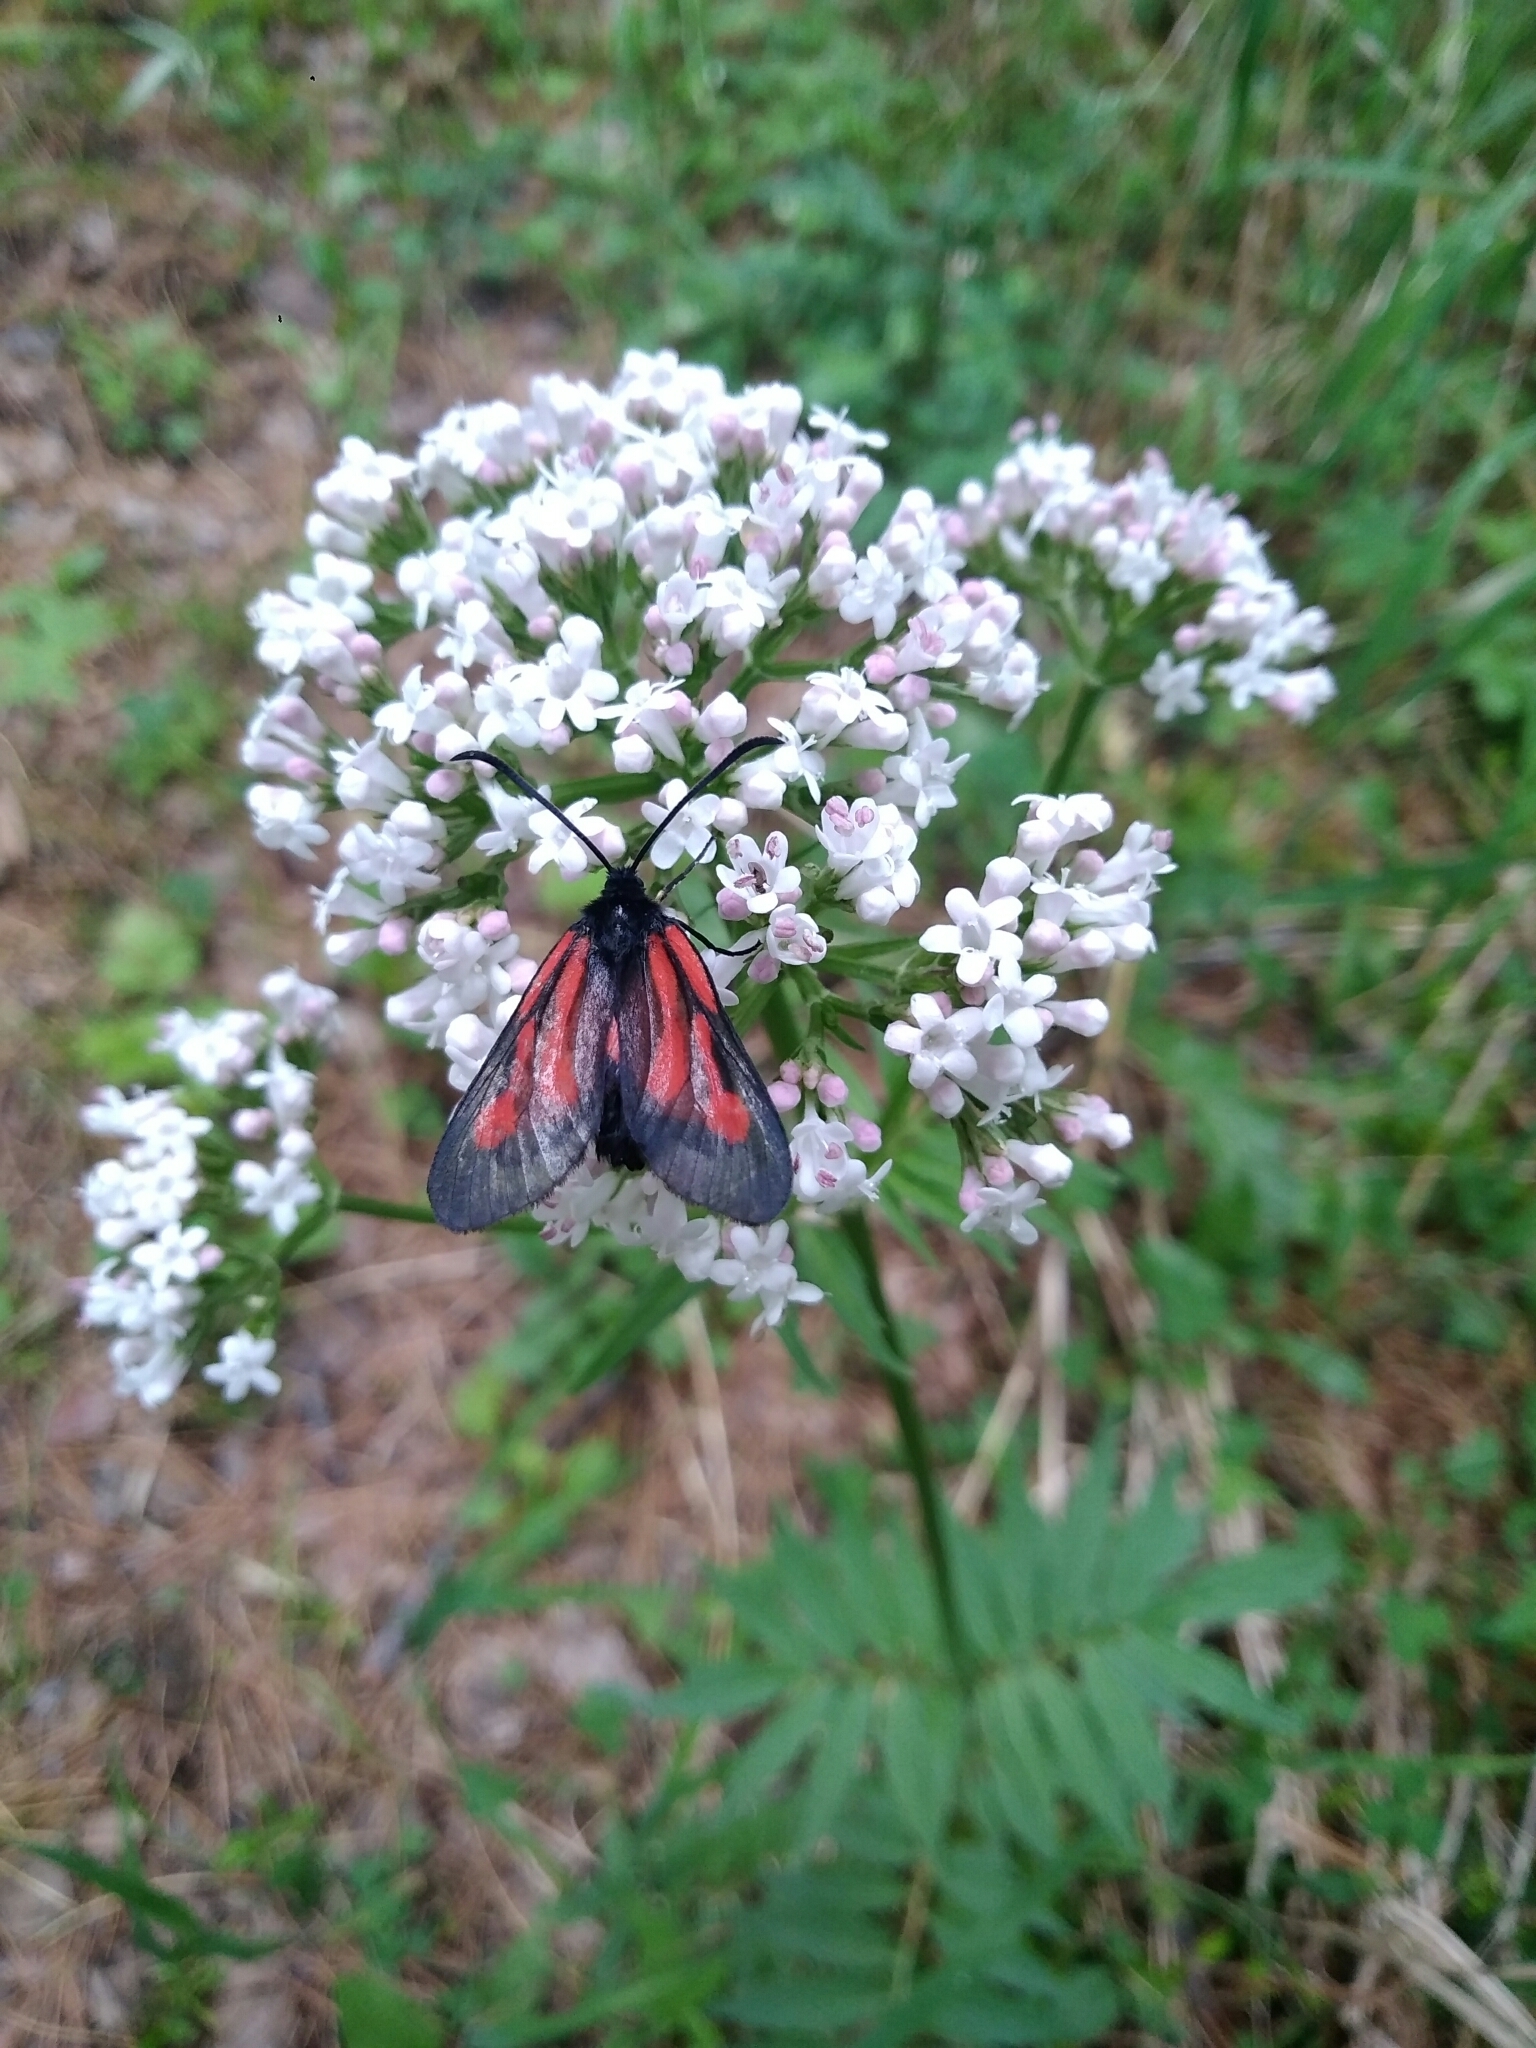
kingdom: Animalia
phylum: Arthropoda
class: Insecta
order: Lepidoptera
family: Zygaenidae
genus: Zygaena
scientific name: Zygaena osterodensis
